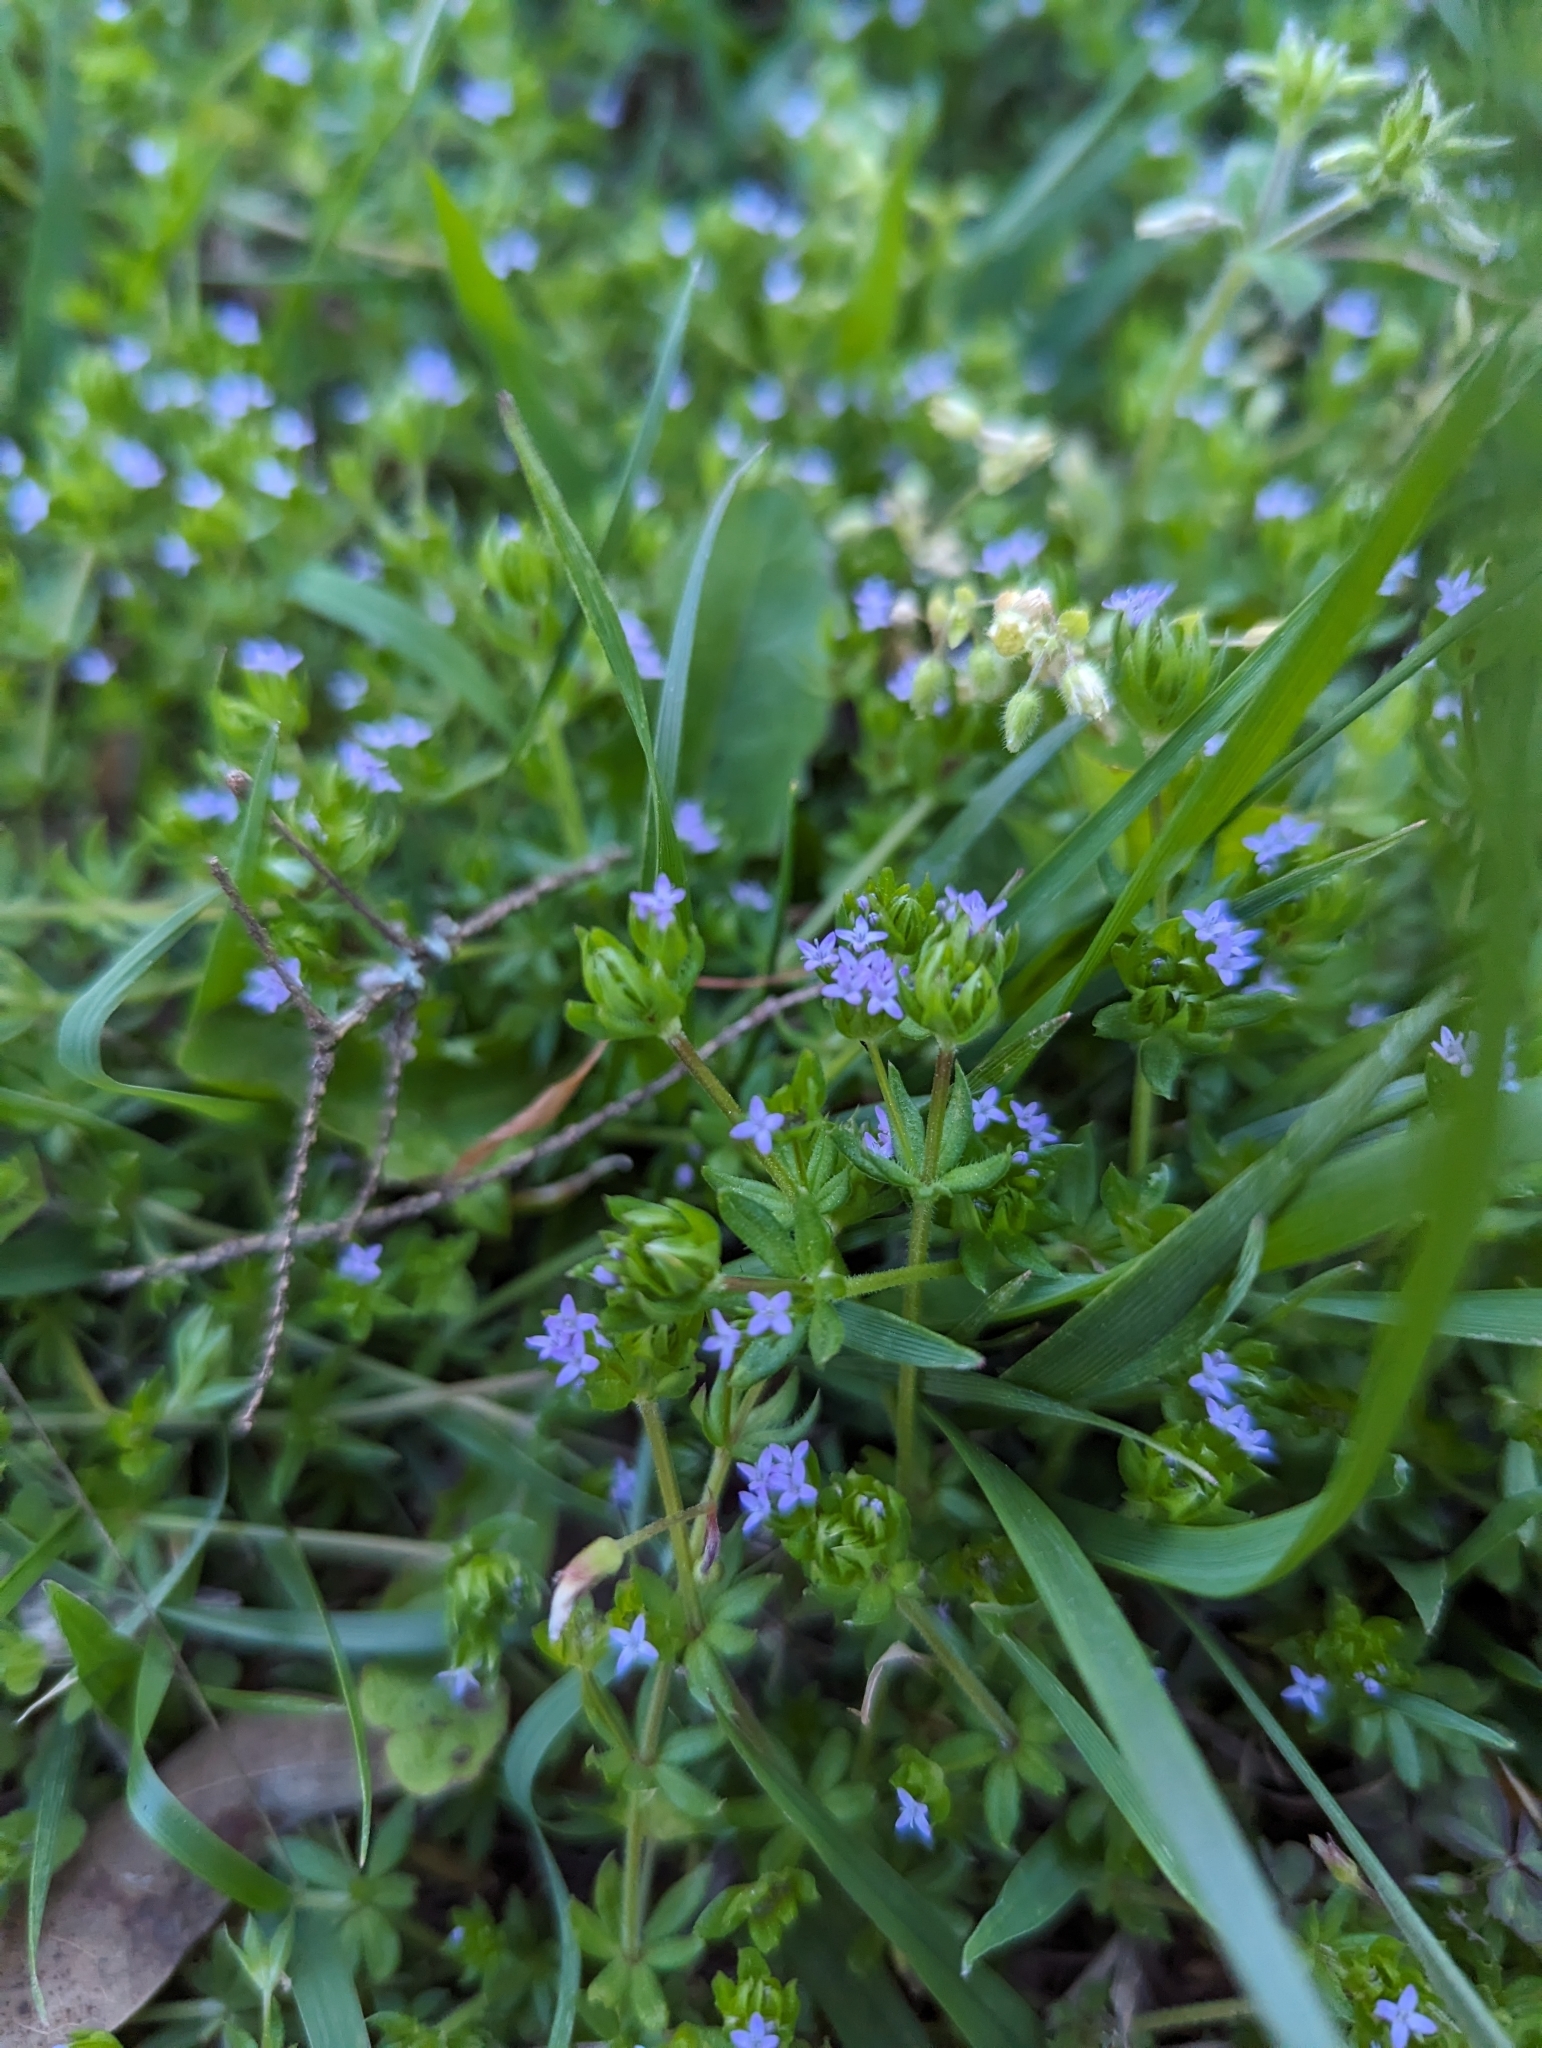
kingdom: Plantae
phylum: Tracheophyta
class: Magnoliopsida
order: Gentianales
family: Rubiaceae
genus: Sherardia
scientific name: Sherardia arvensis
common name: Field madder
